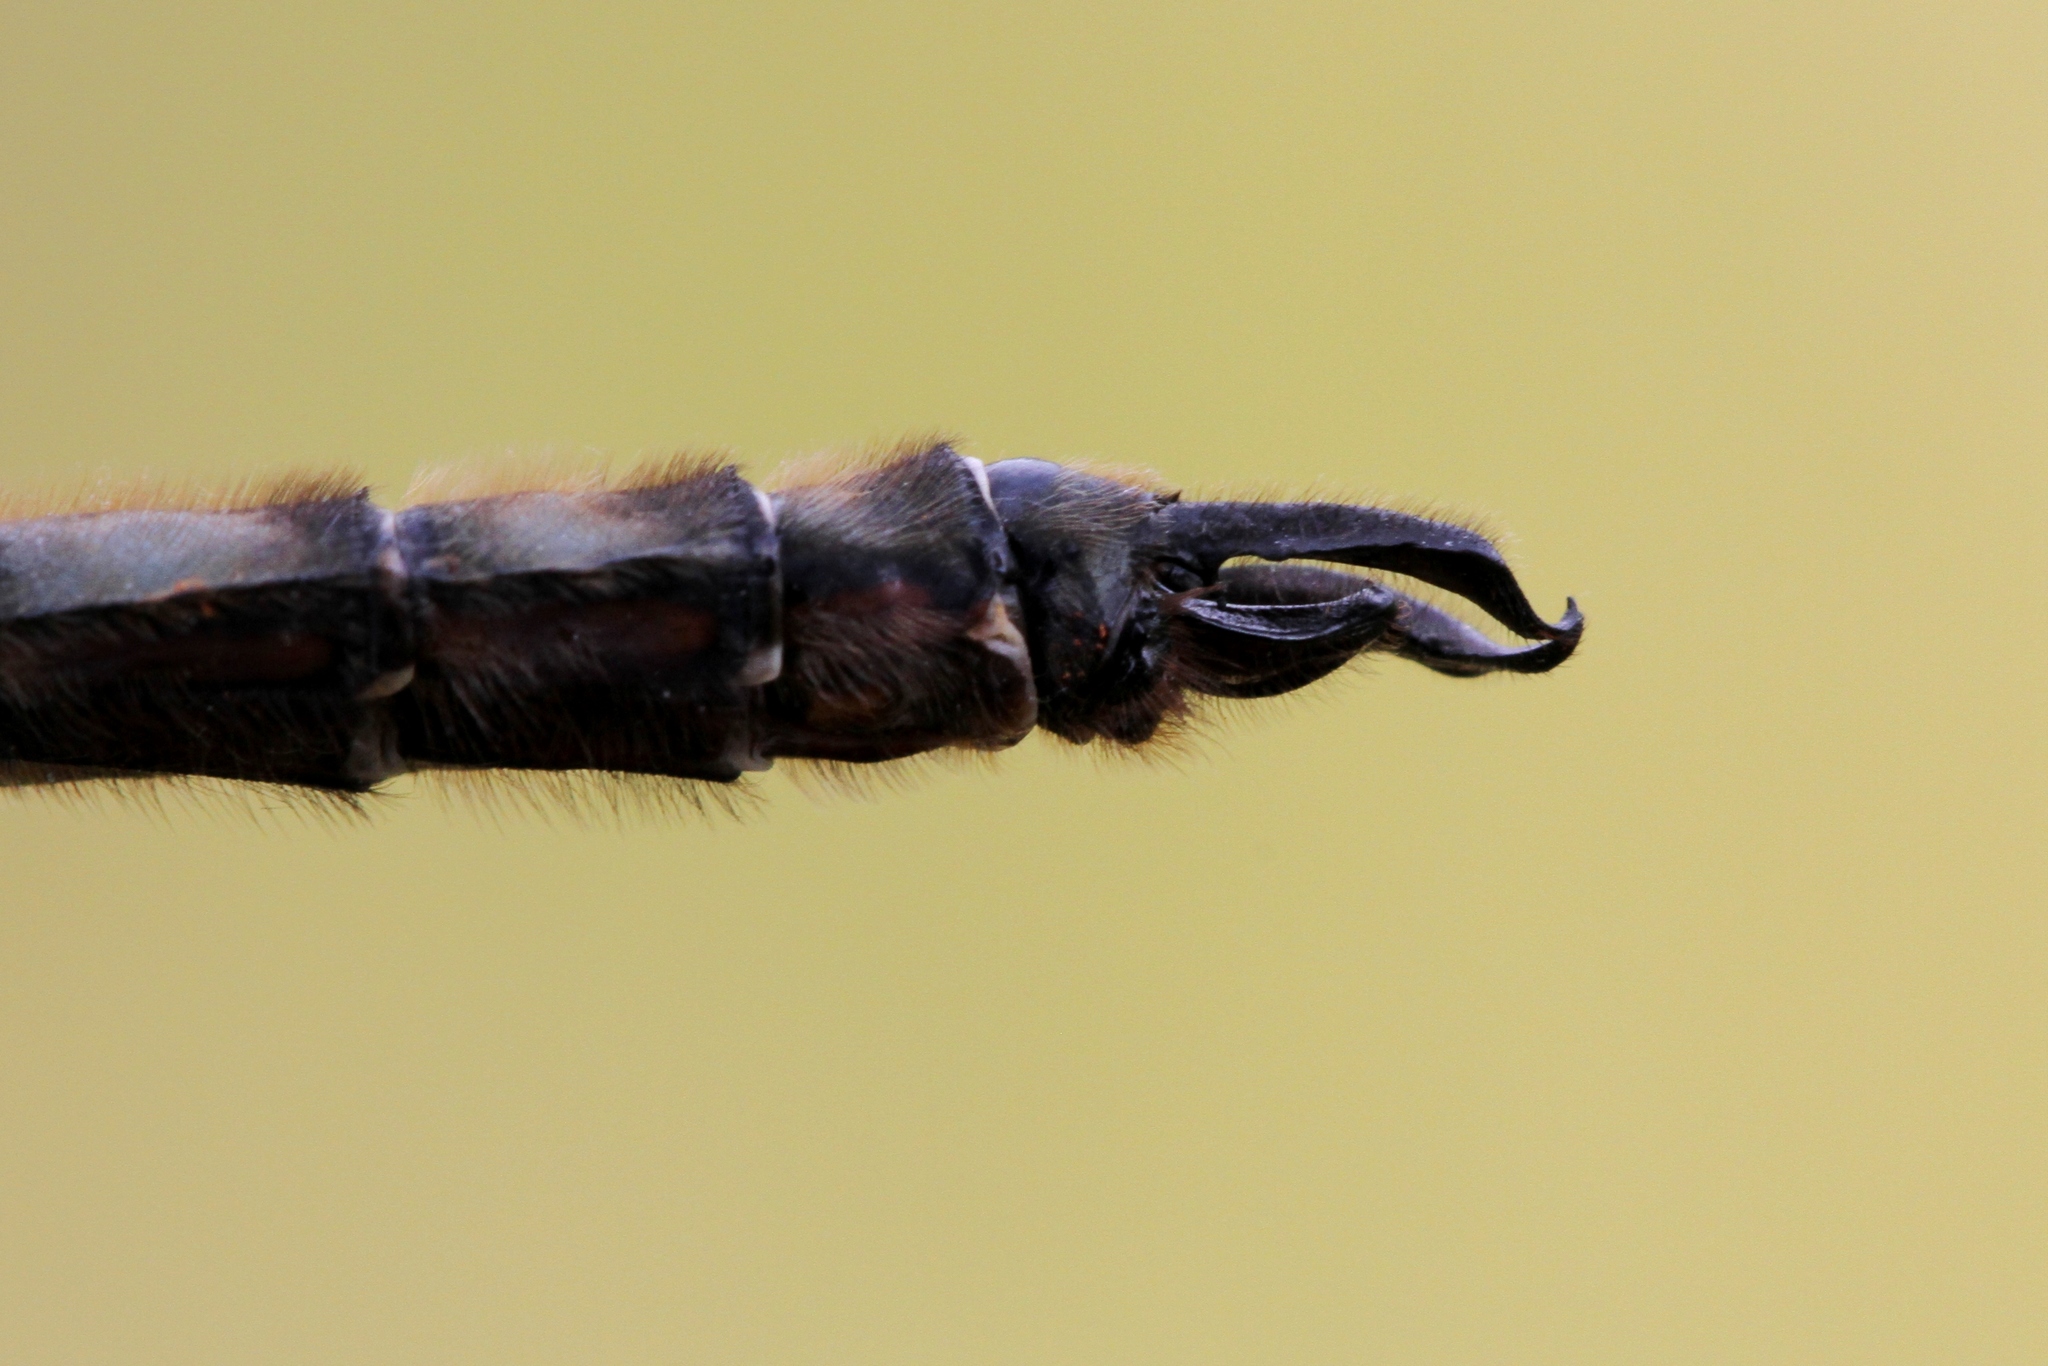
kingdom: Animalia
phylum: Arthropoda
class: Insecta
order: Odonata
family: Corduliidae
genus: Somatochlora
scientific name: Somatochlora septentrionalis
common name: Muskeg emerald
